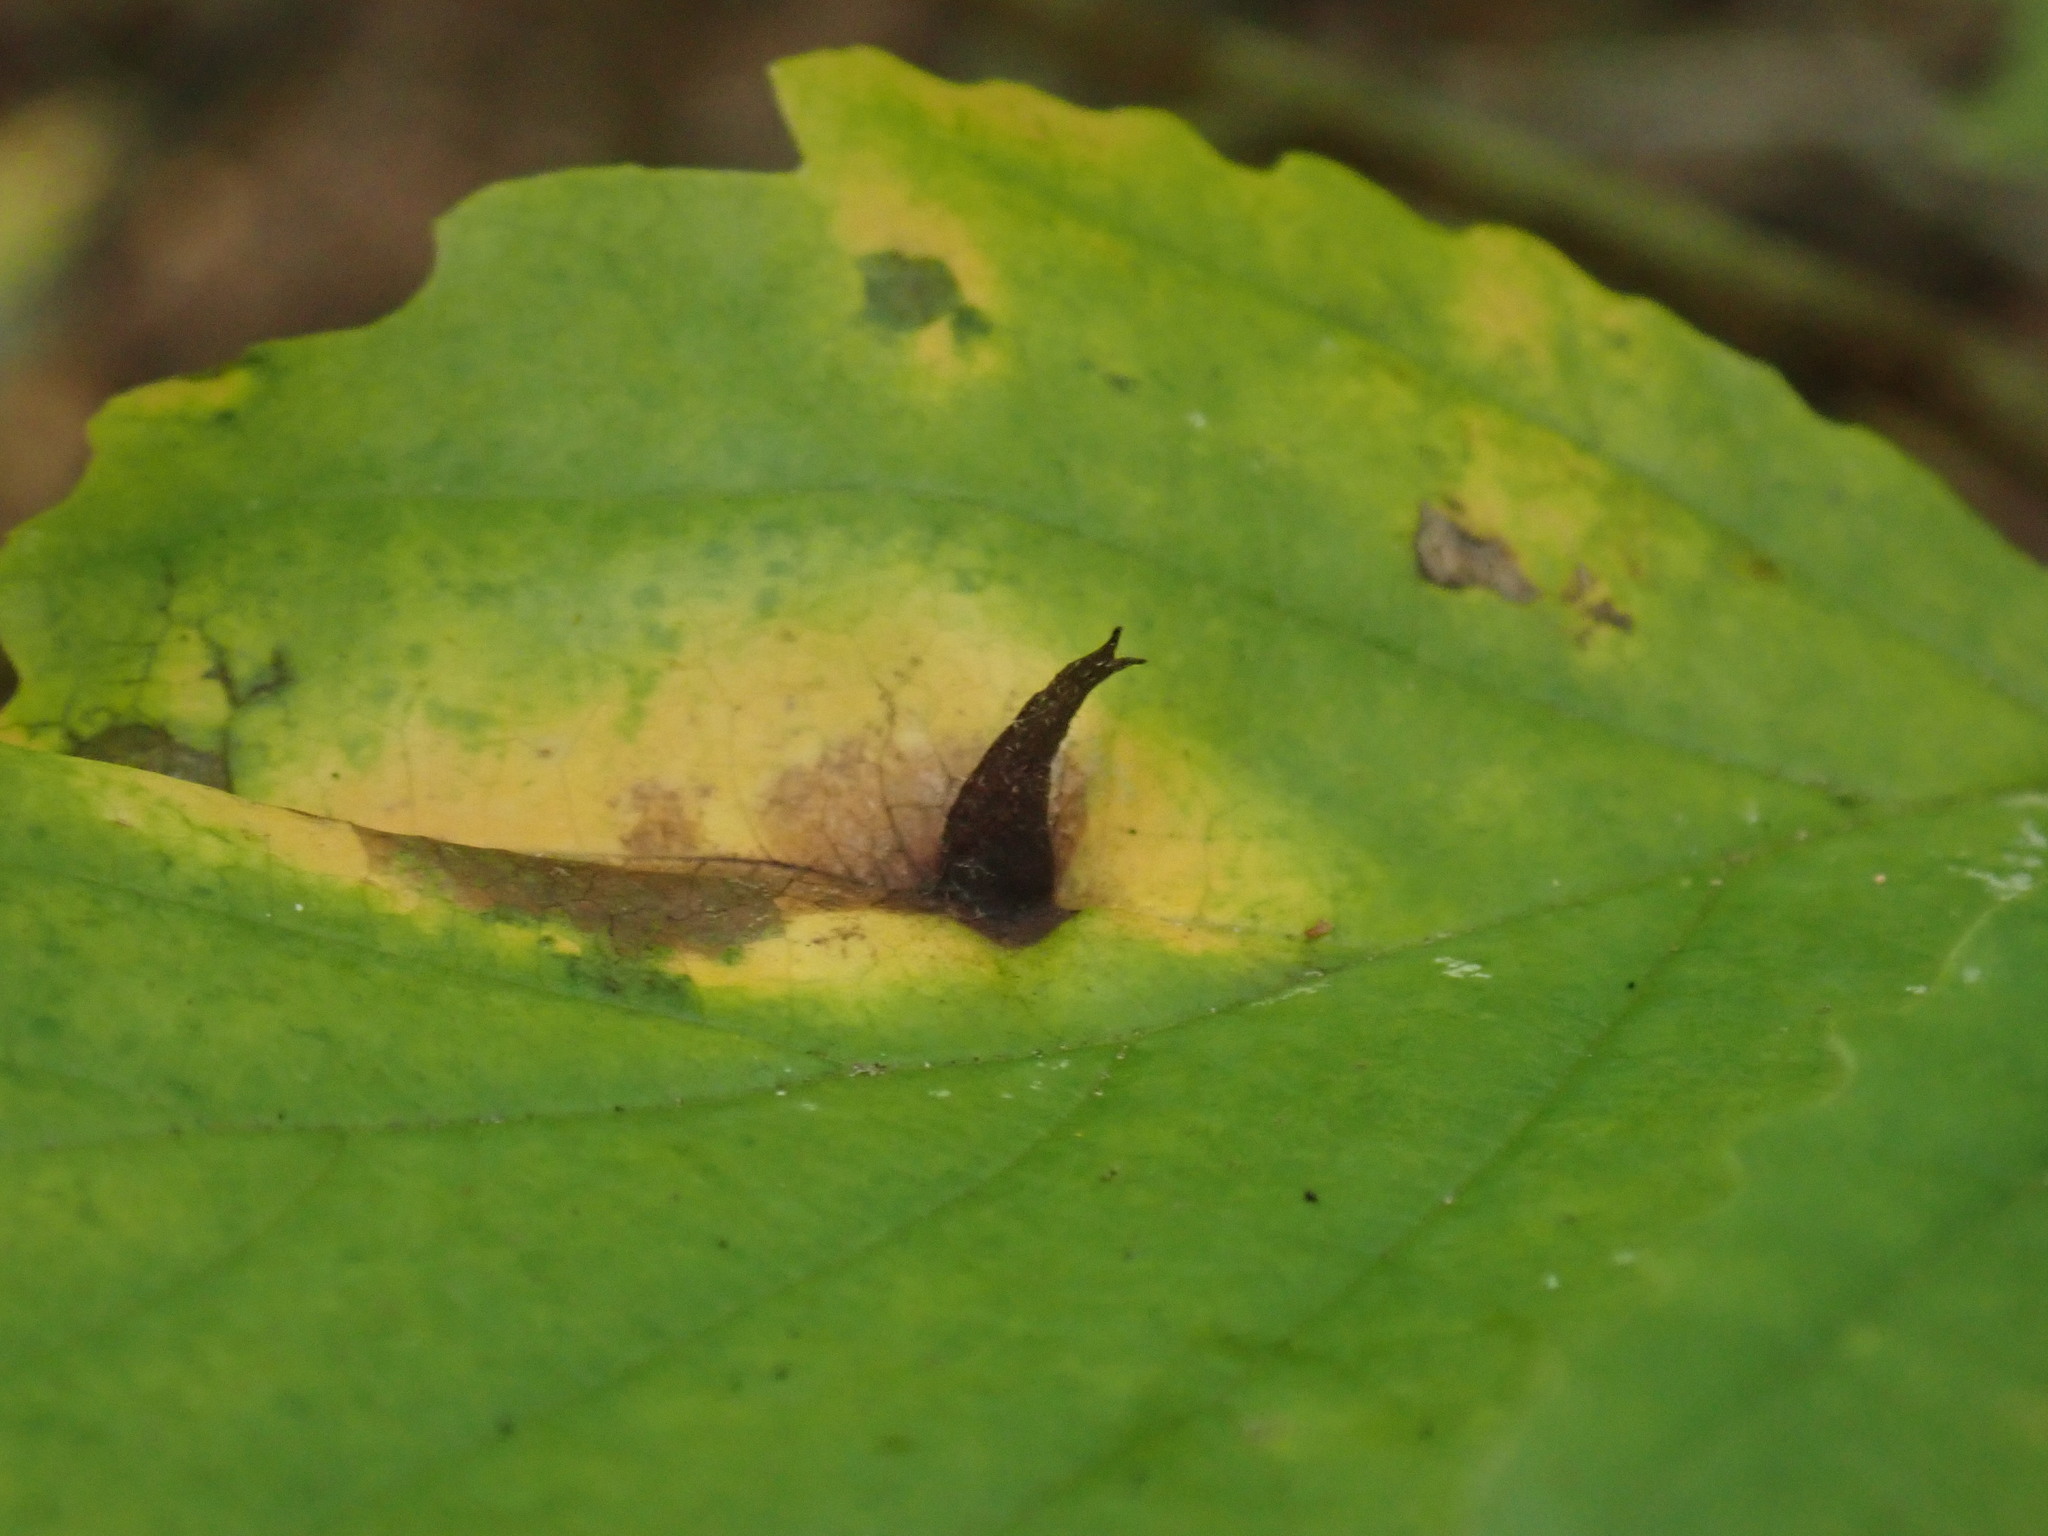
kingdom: Animalia
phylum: Arthropoda
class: Insecta
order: Hemiptera
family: Aphididae
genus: Hormaphis
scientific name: Hormaphis hamamelidis
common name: Witch-hazel cone gall aphid
